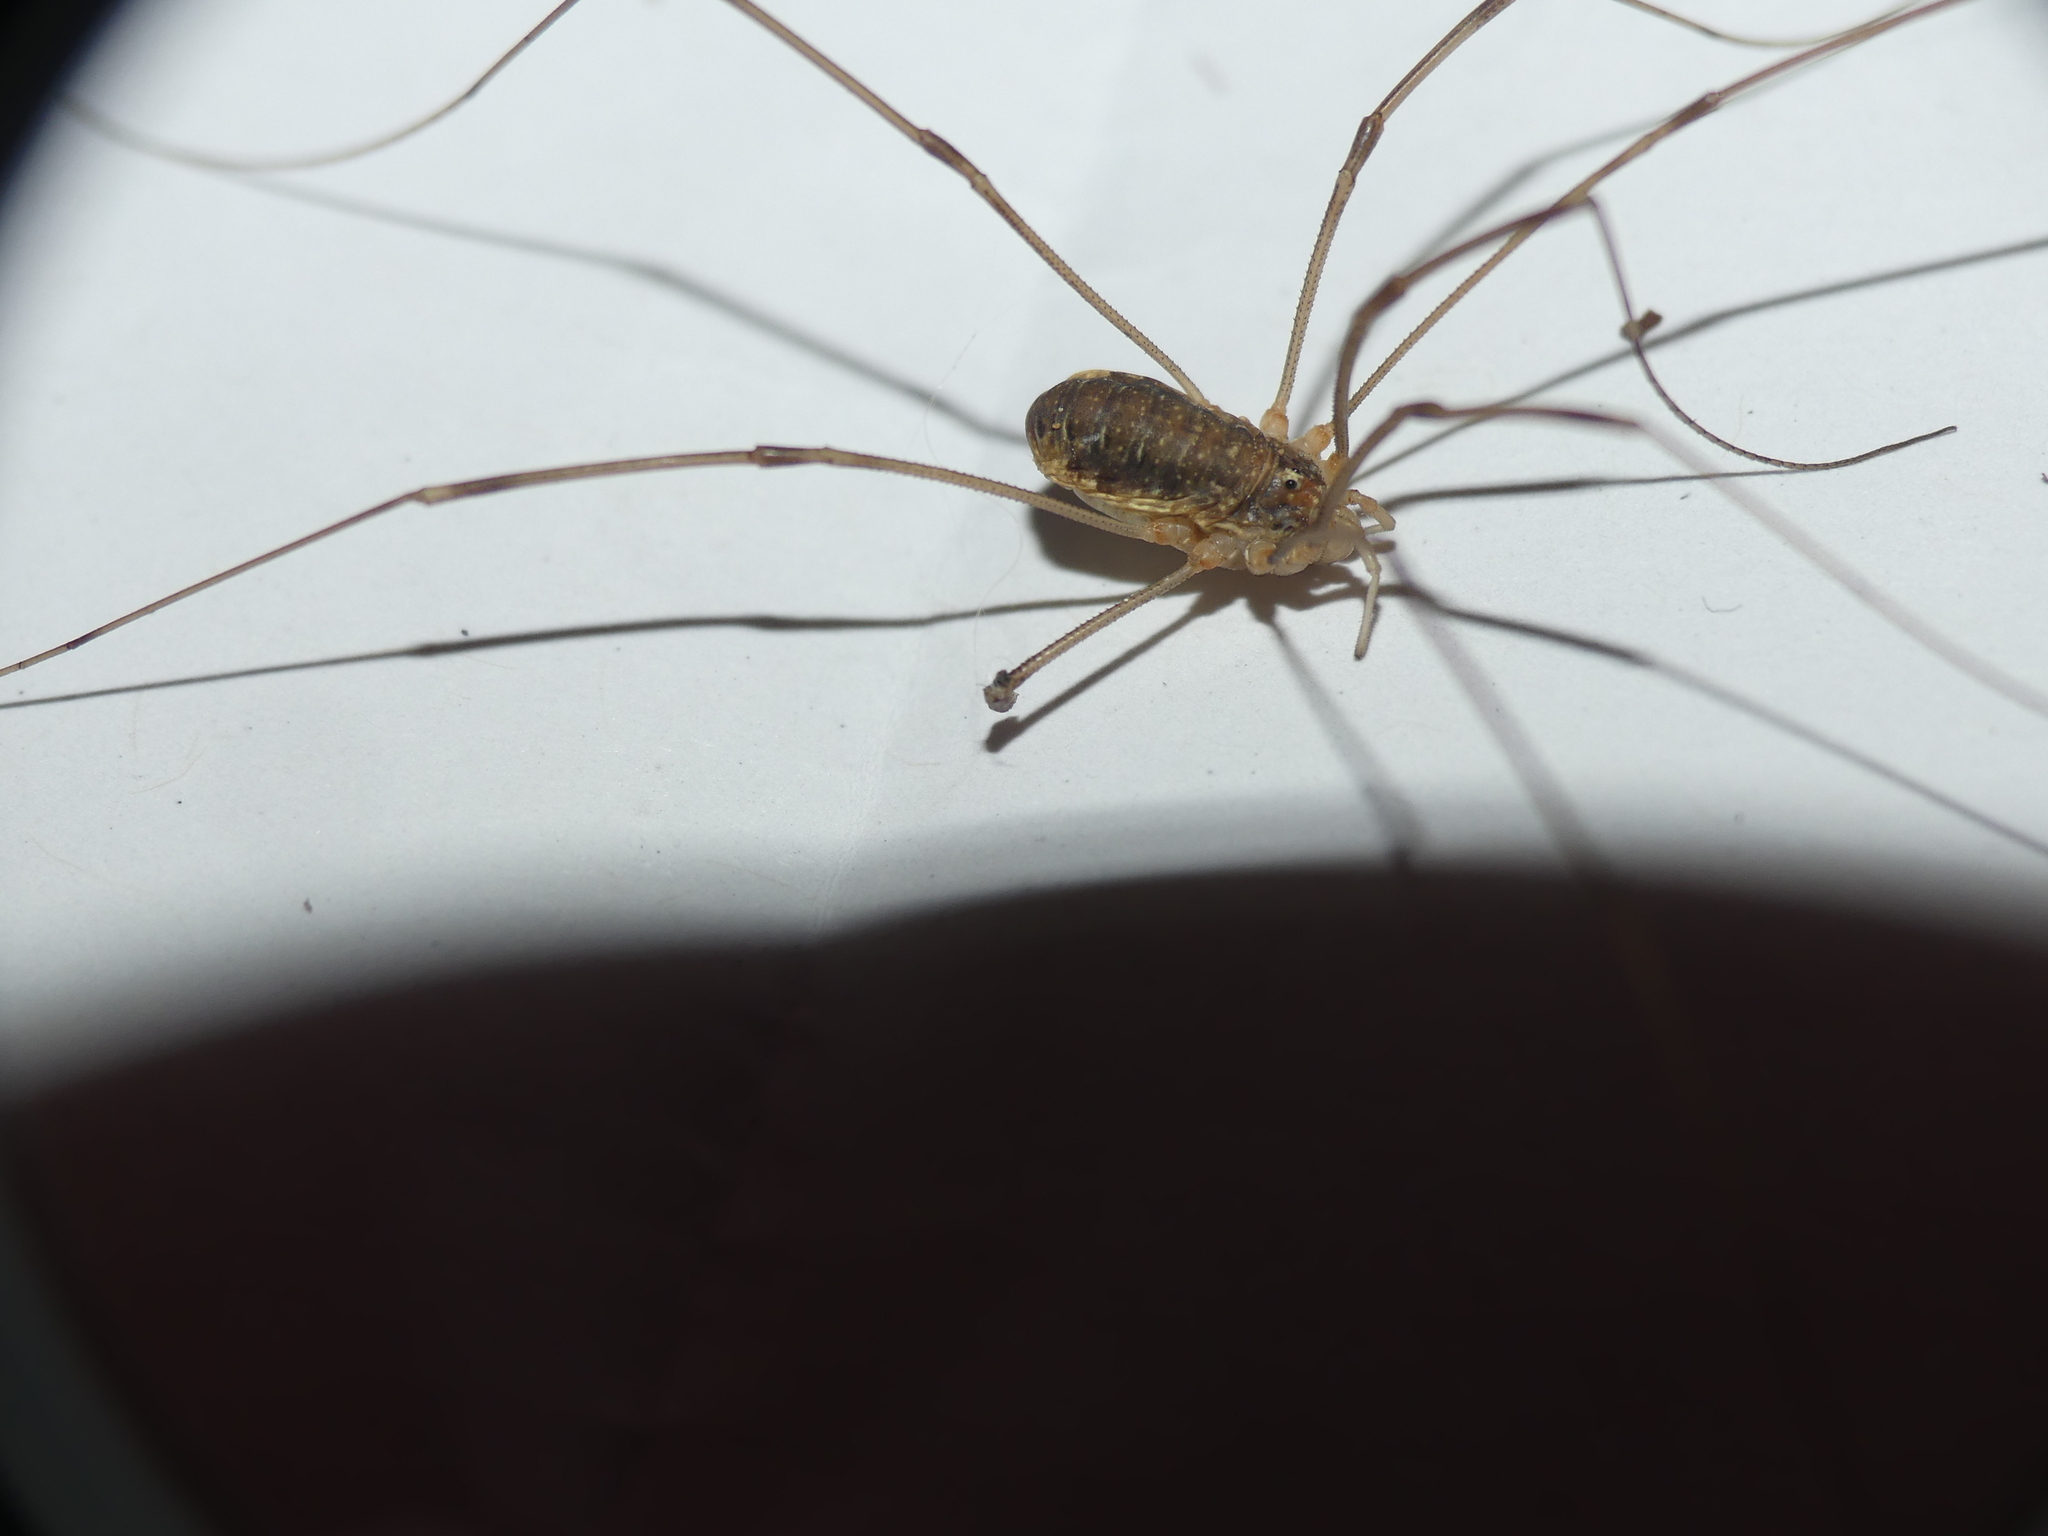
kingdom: Animalia
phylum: Arthropoda
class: Arachnida
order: Opiliones
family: Phalangiidae
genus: Opilio
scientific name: Opilio canestrinii
